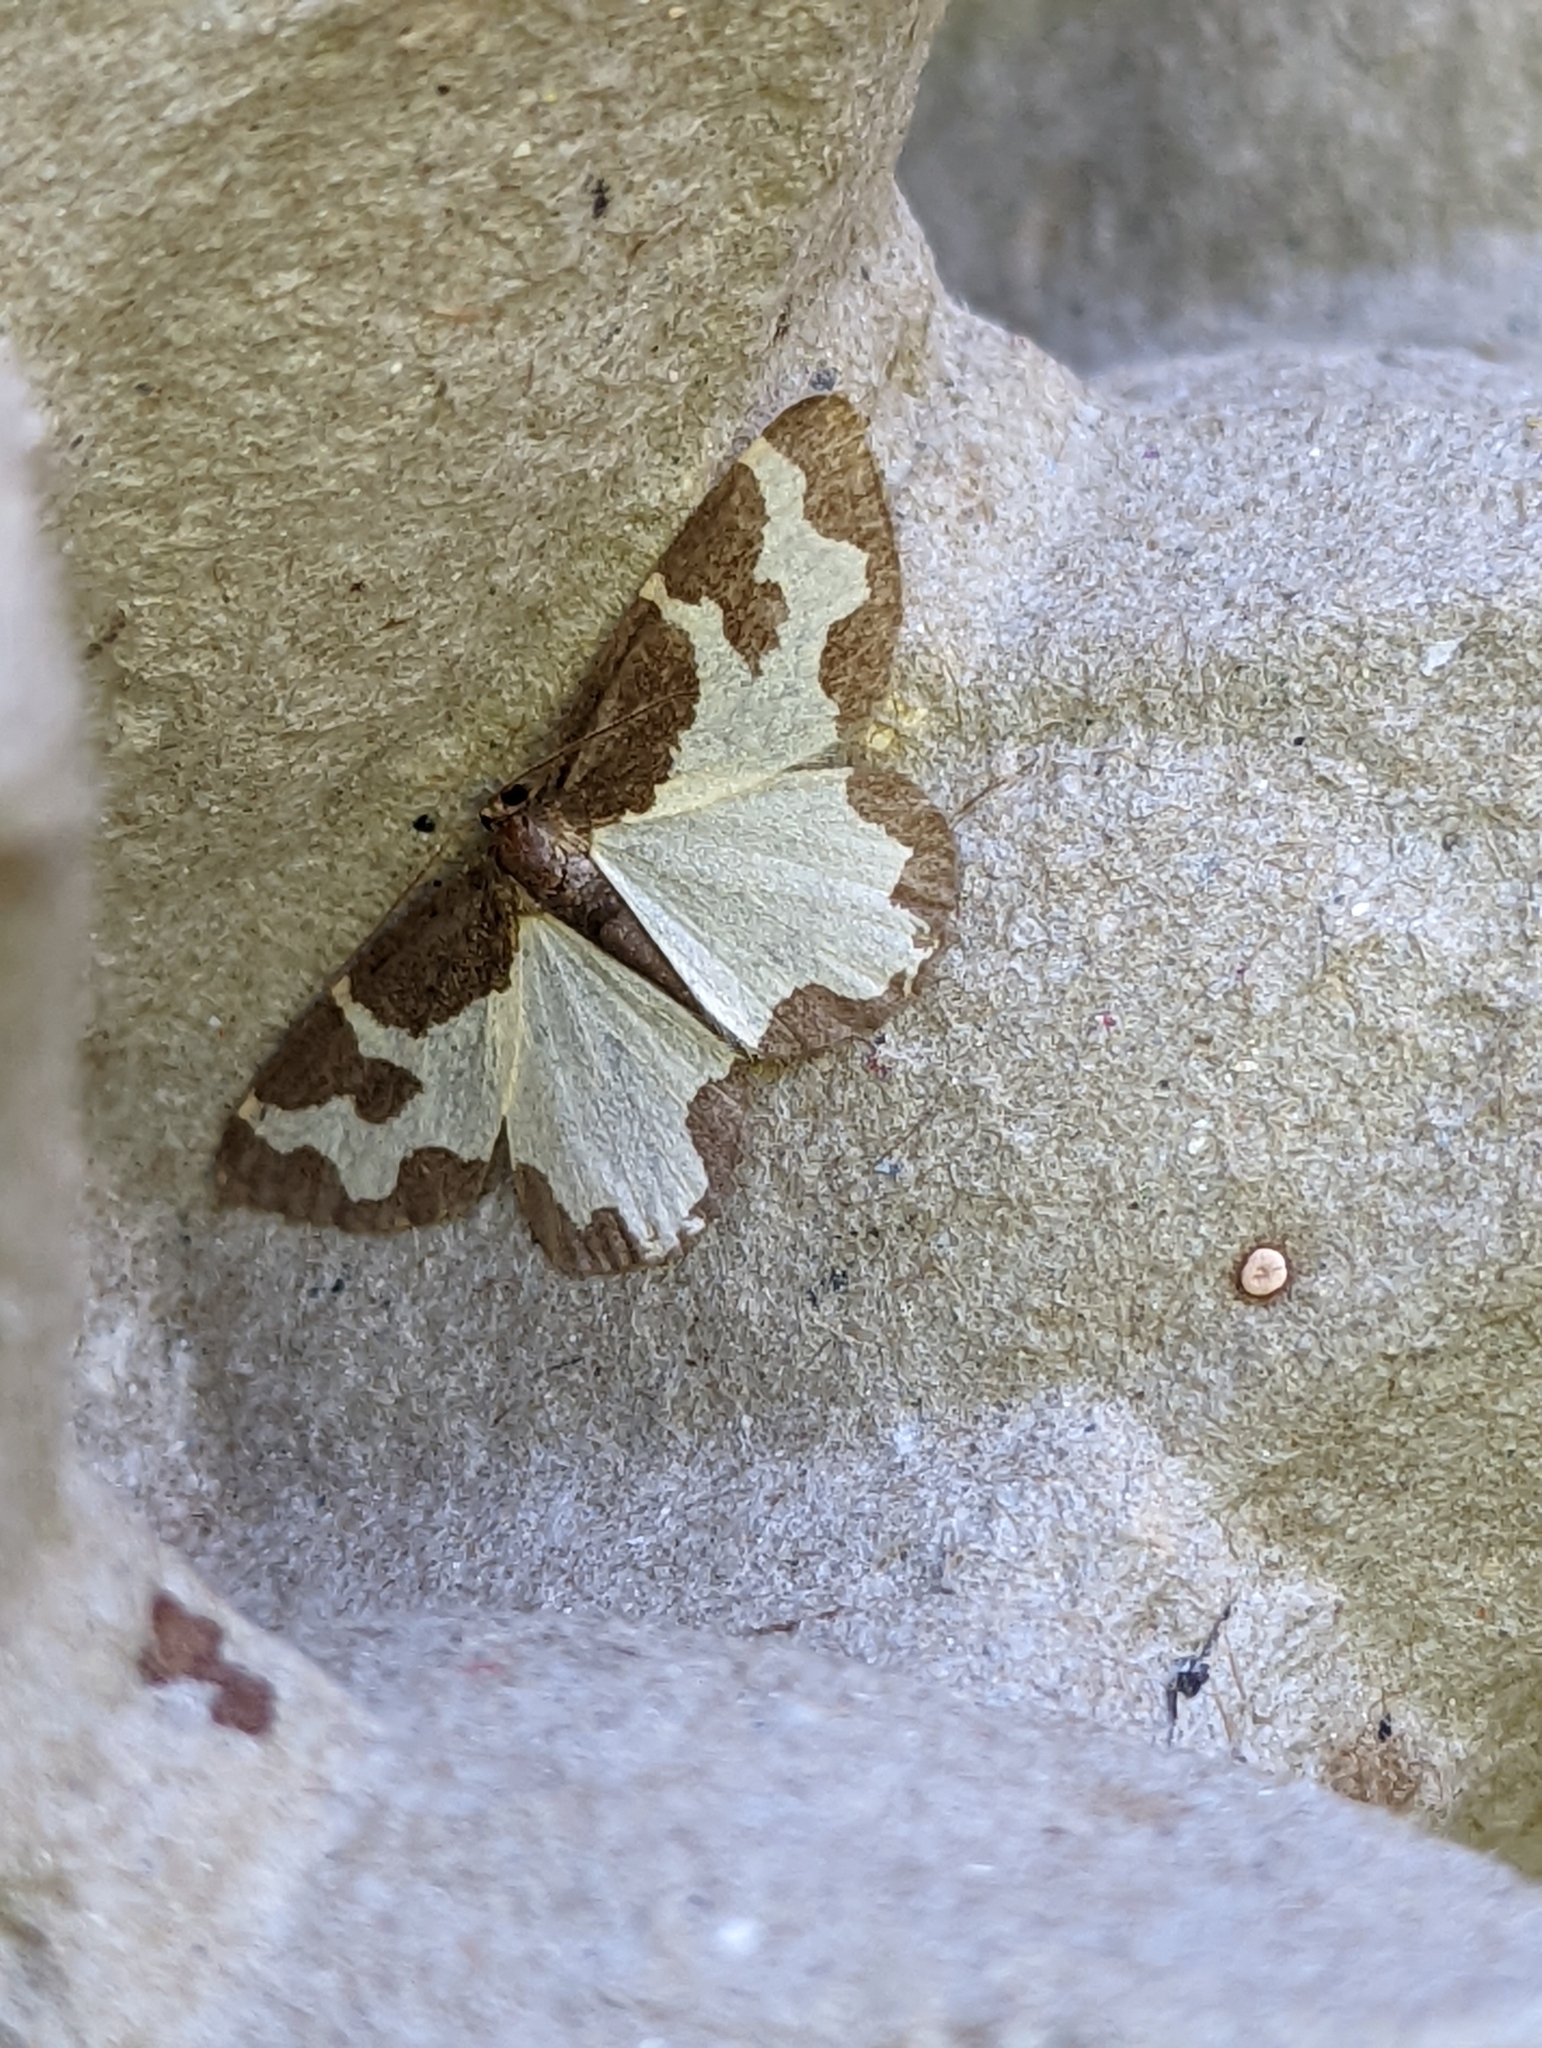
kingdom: Animalia
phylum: Arthropoda
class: Insecta
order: Lepidoptera
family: Geometridae
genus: Lomaspilis
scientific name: Lomaspilis marginata
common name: Clouded border
